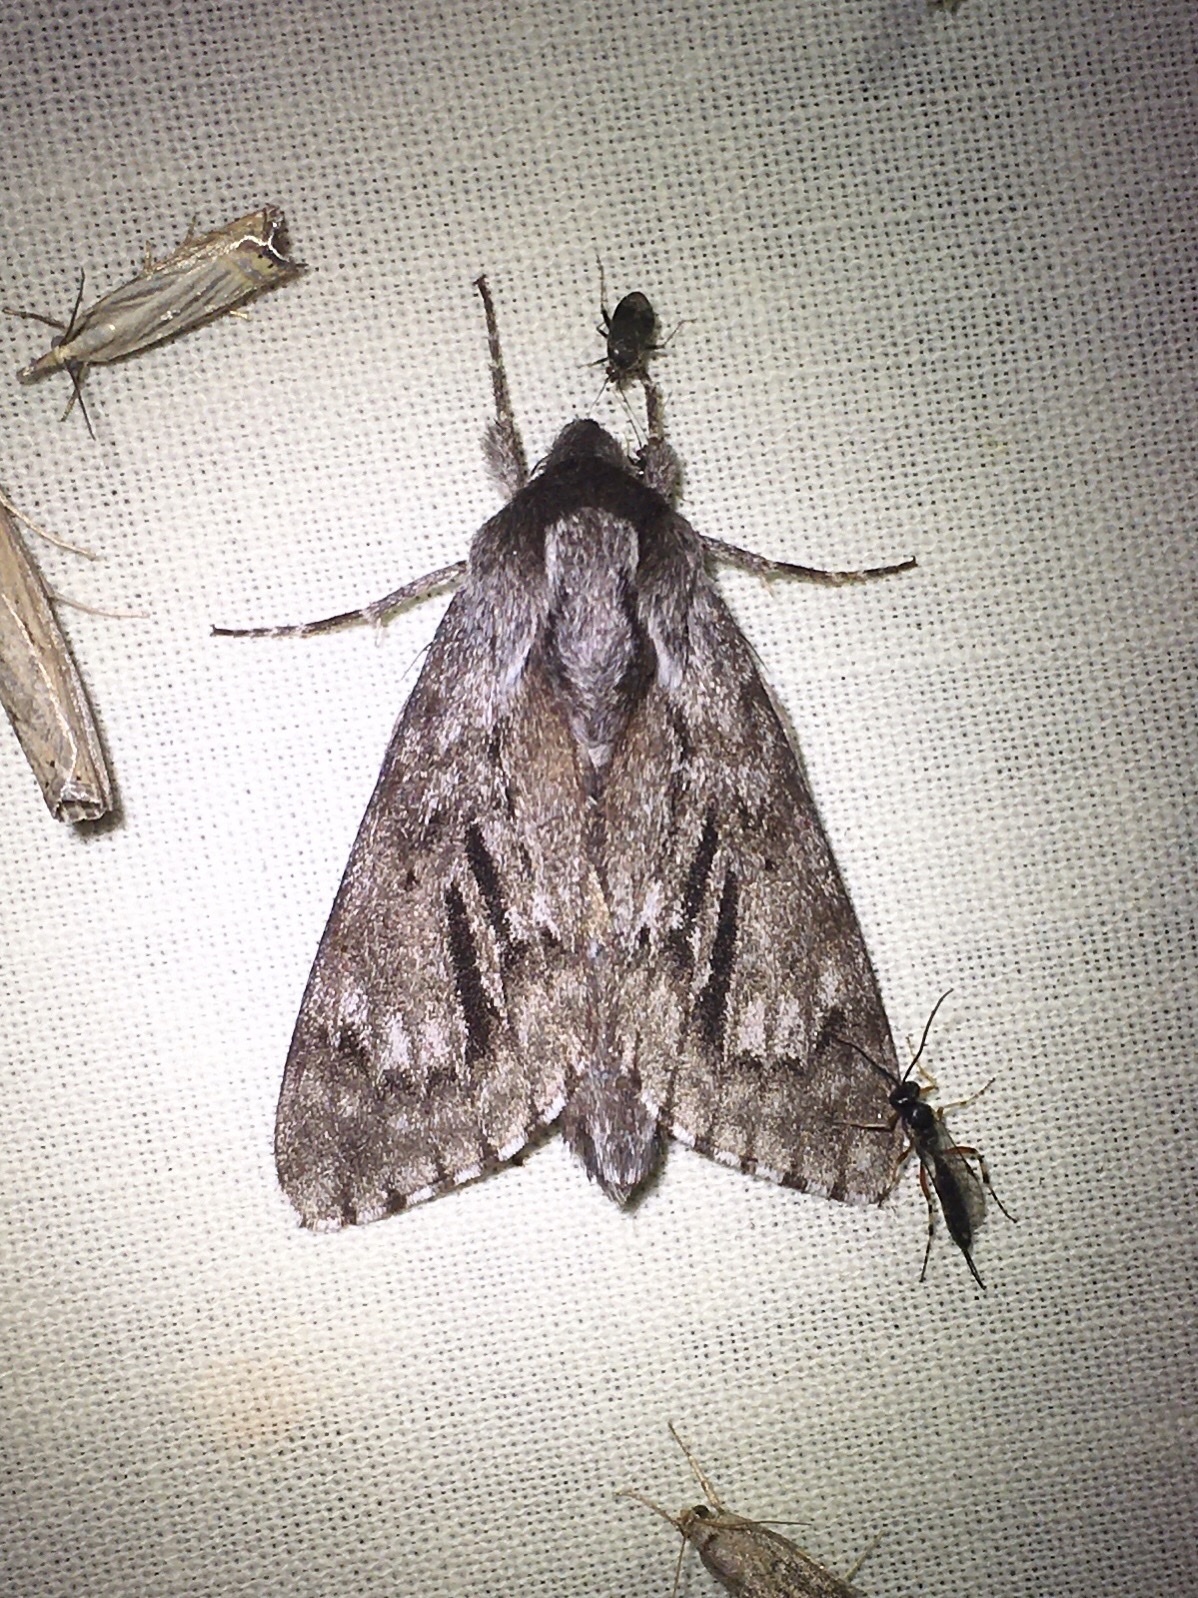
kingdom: Animalia
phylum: Arthropoda
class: Insecta
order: Lepidoptera
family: Sphingidae
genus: Lapara
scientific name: Lapara bombycoides
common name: Northern pine sphinx
